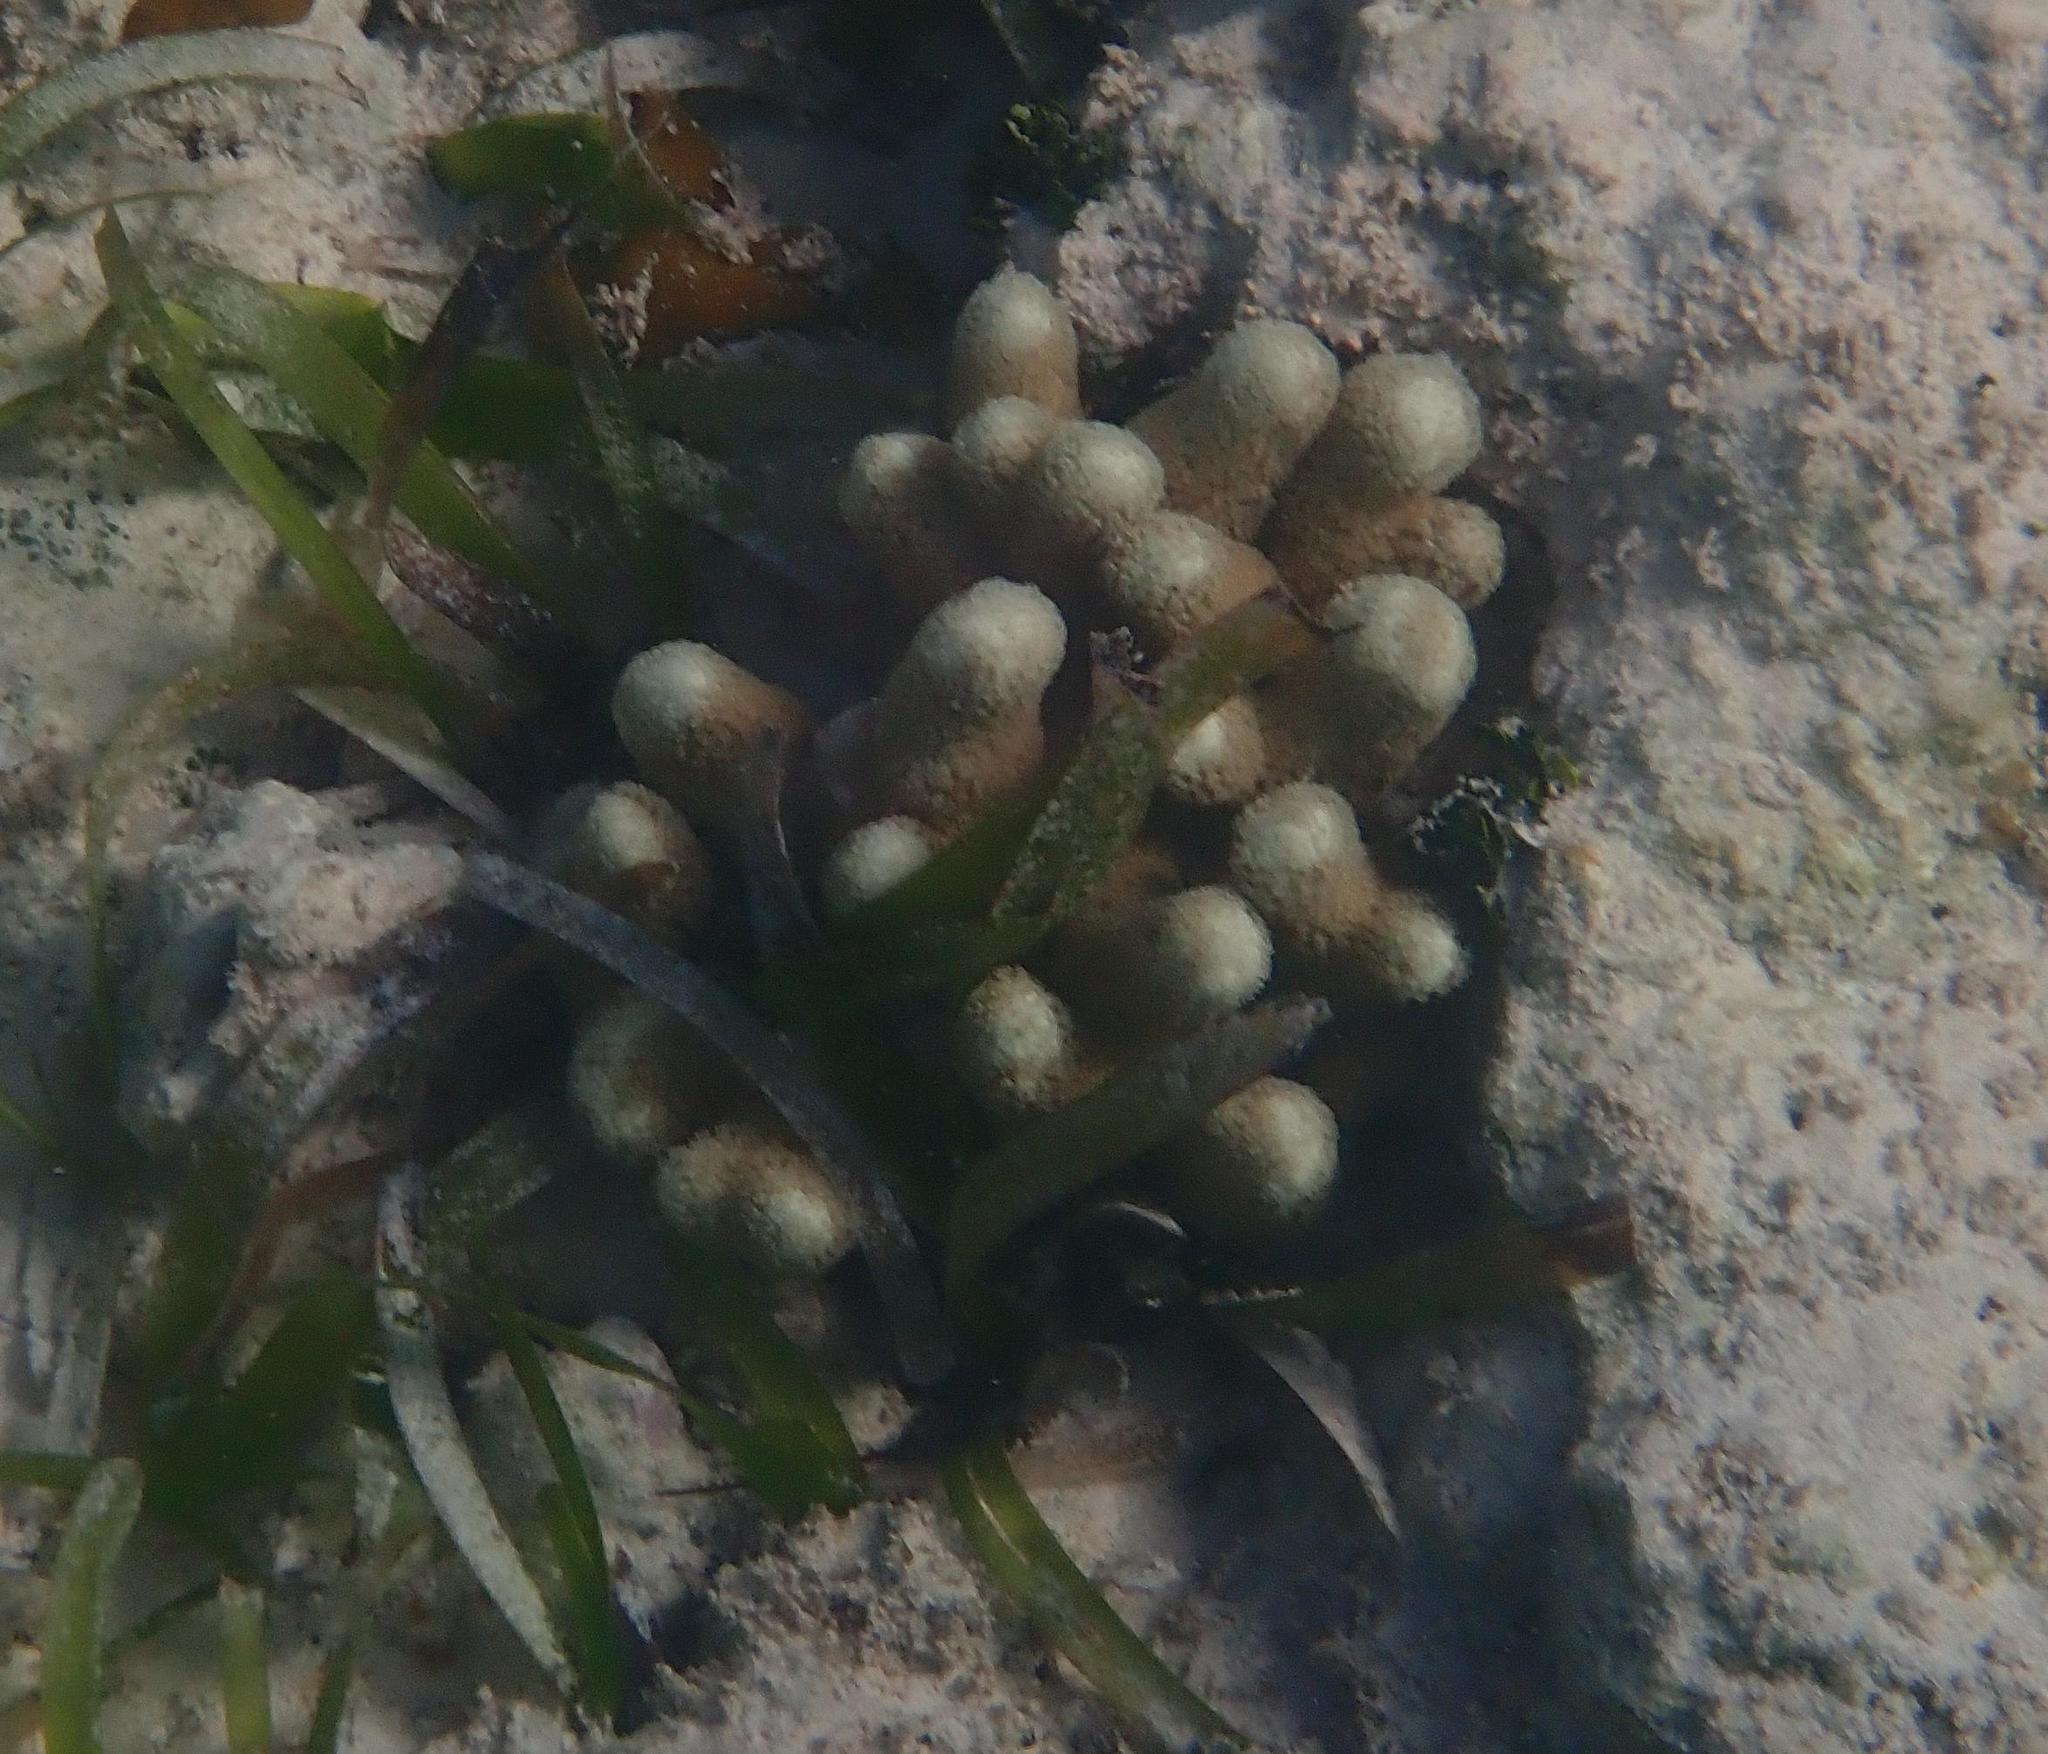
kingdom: Animalia
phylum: Cnidaria
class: Anthozoa
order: Scleractinia
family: Poritidae
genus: Porites
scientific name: Porites porites
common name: Finger coral
